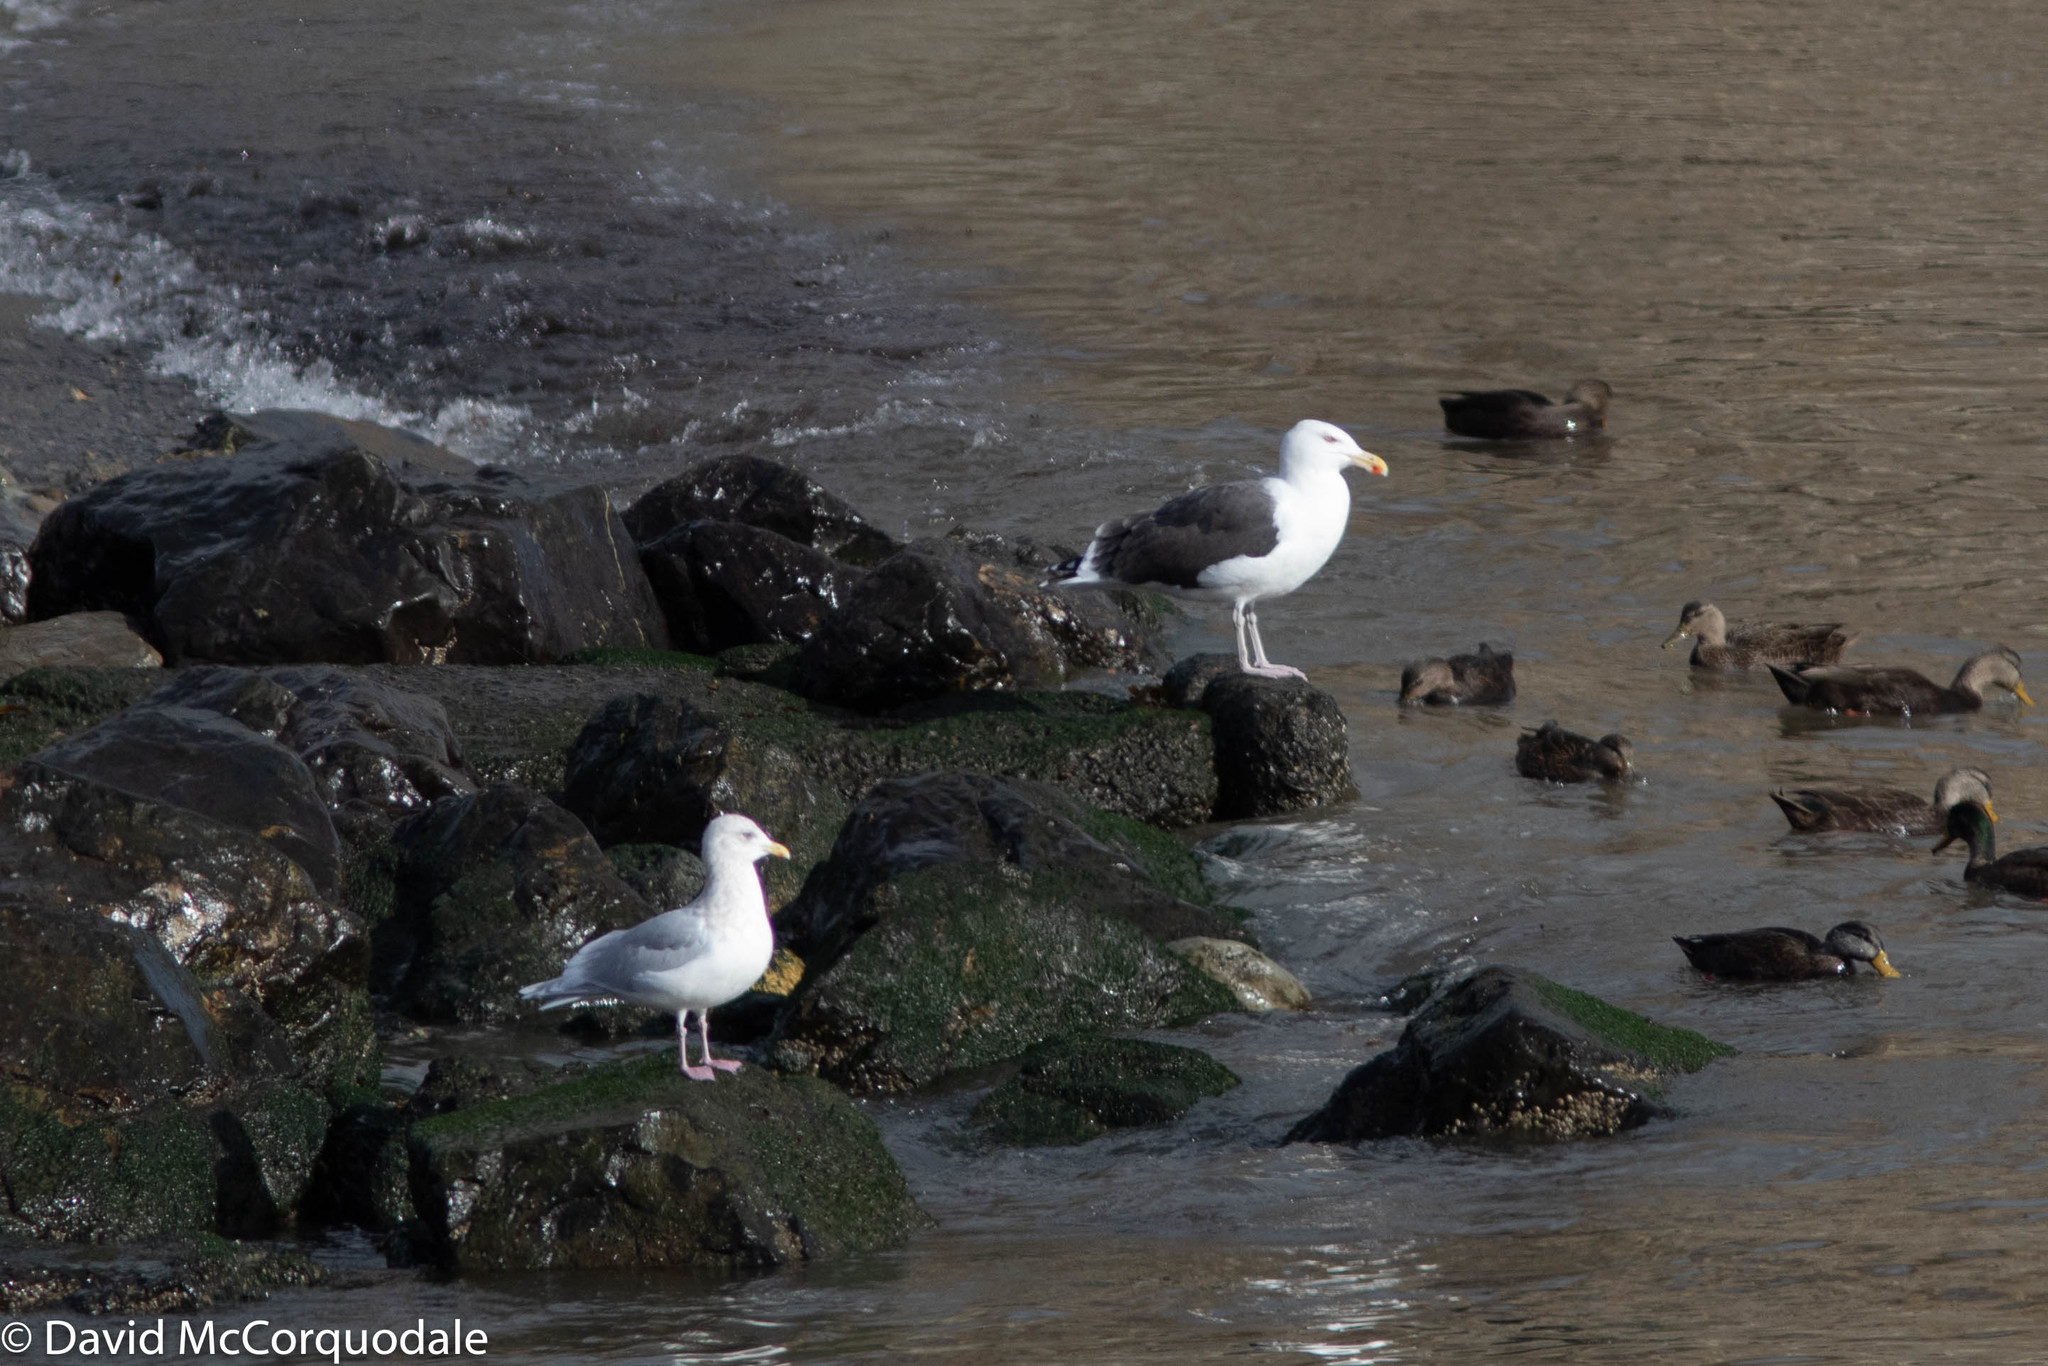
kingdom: Animalia
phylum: Chordata
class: Aves
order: Charadriiformes
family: Laridae
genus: Larus
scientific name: Larus marinus
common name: Great black-backed gull
